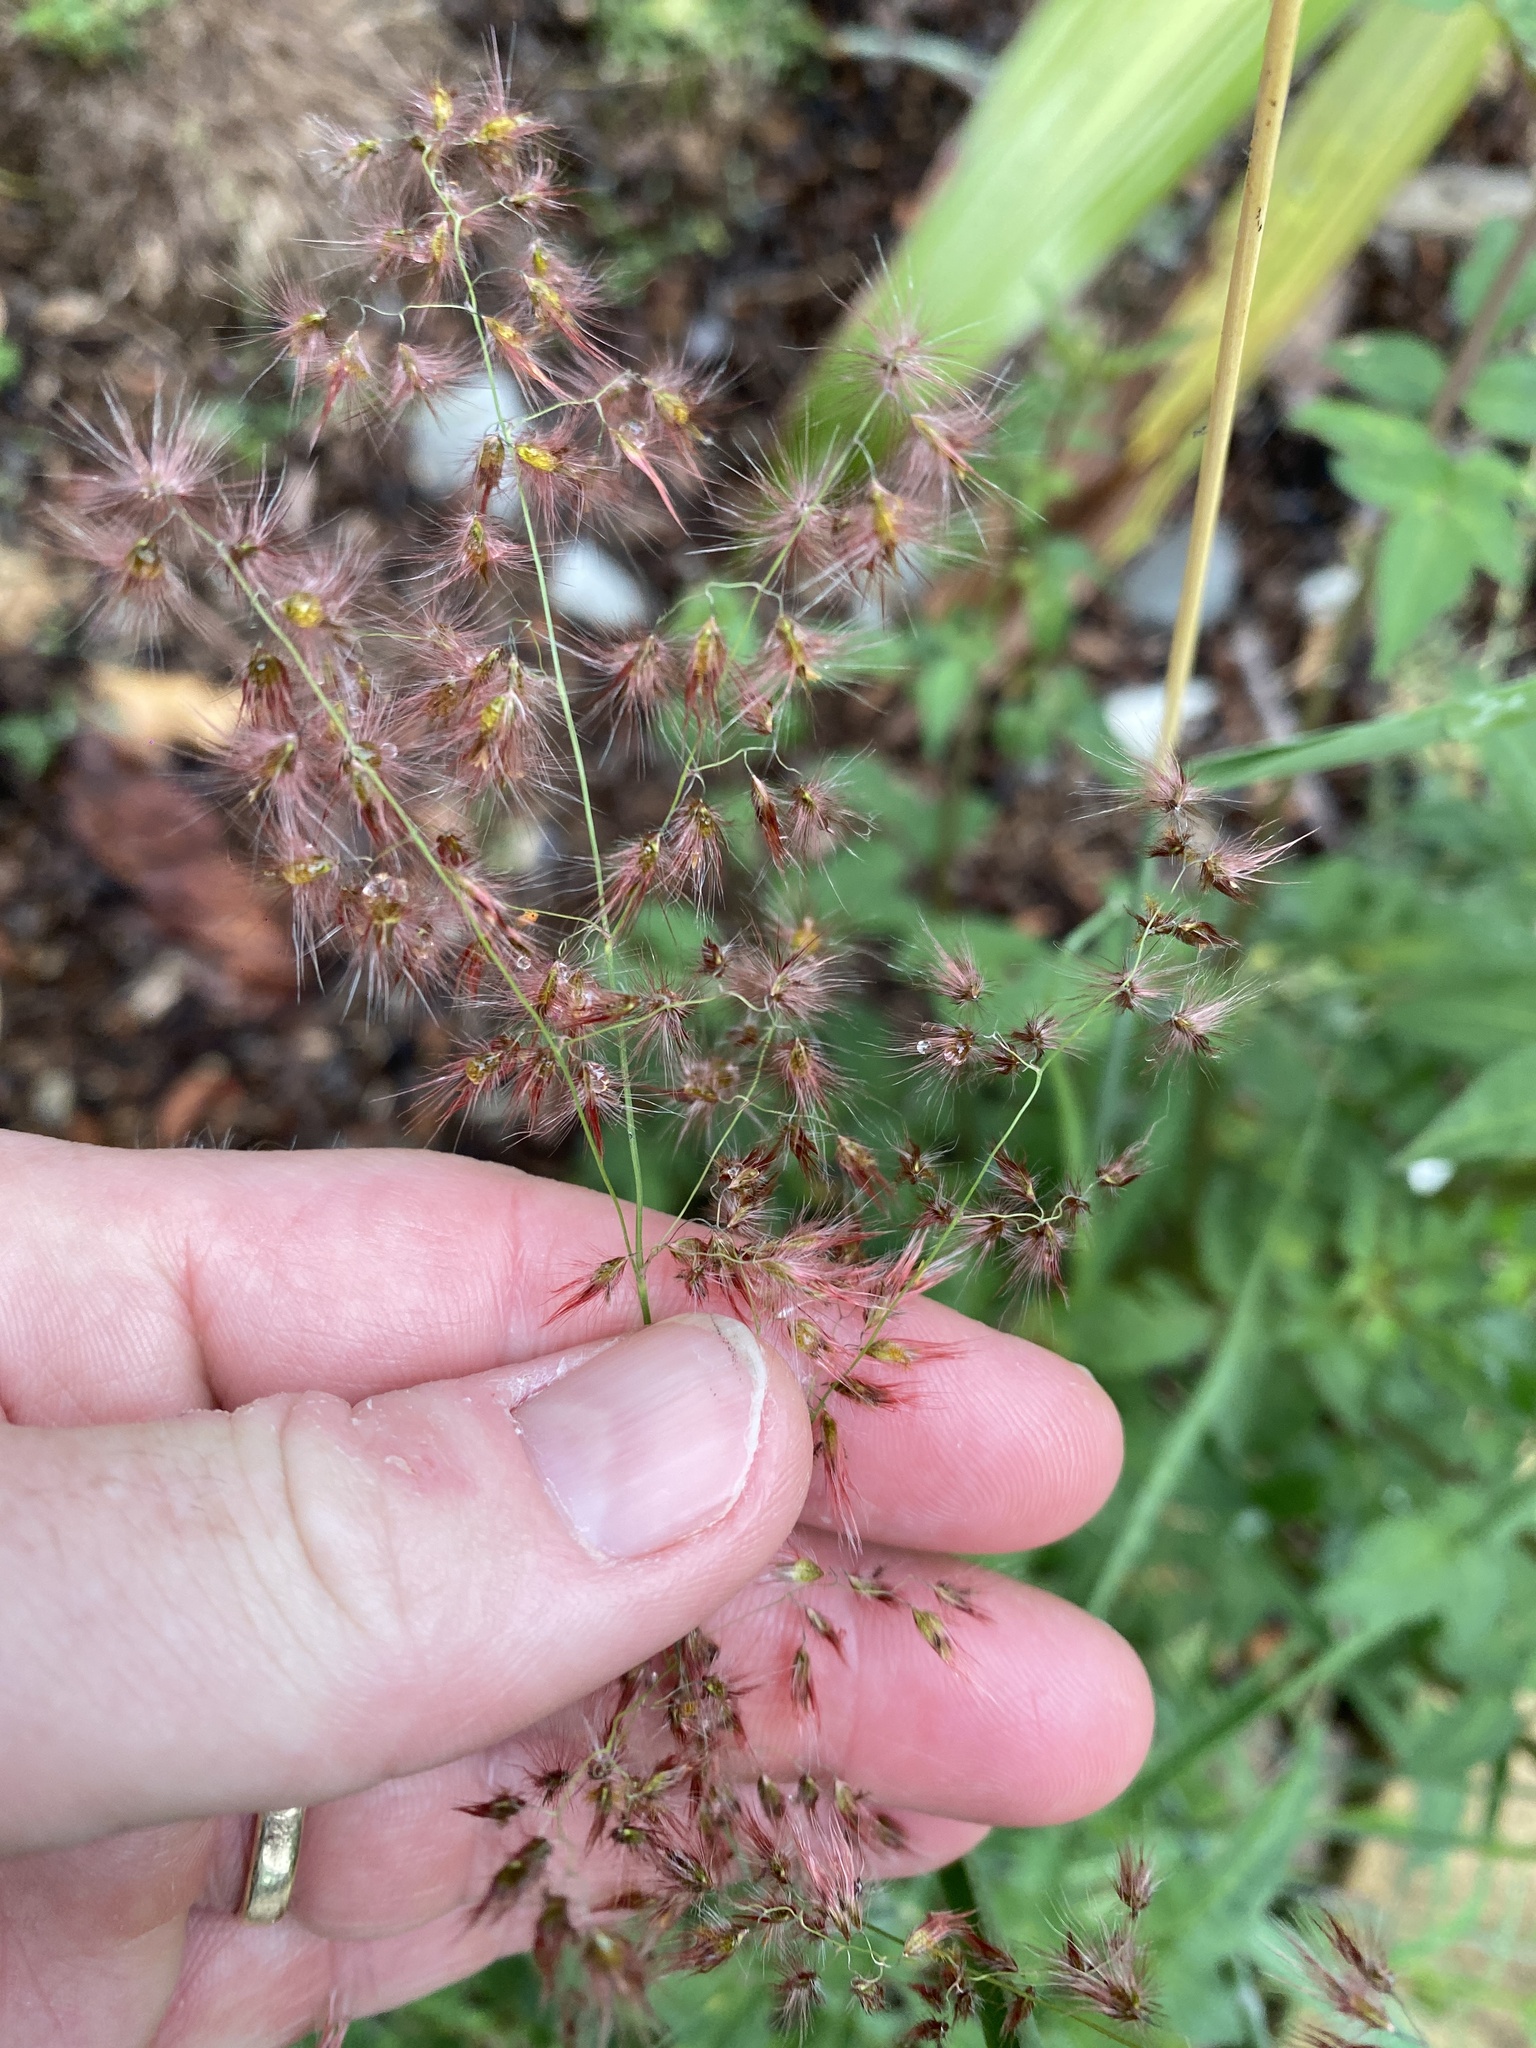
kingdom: Plantae
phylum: Tracheophyta
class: Liliopsida
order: Poales
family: Poaceae
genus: Melinis
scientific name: Melinis repens
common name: Rose natal grass
